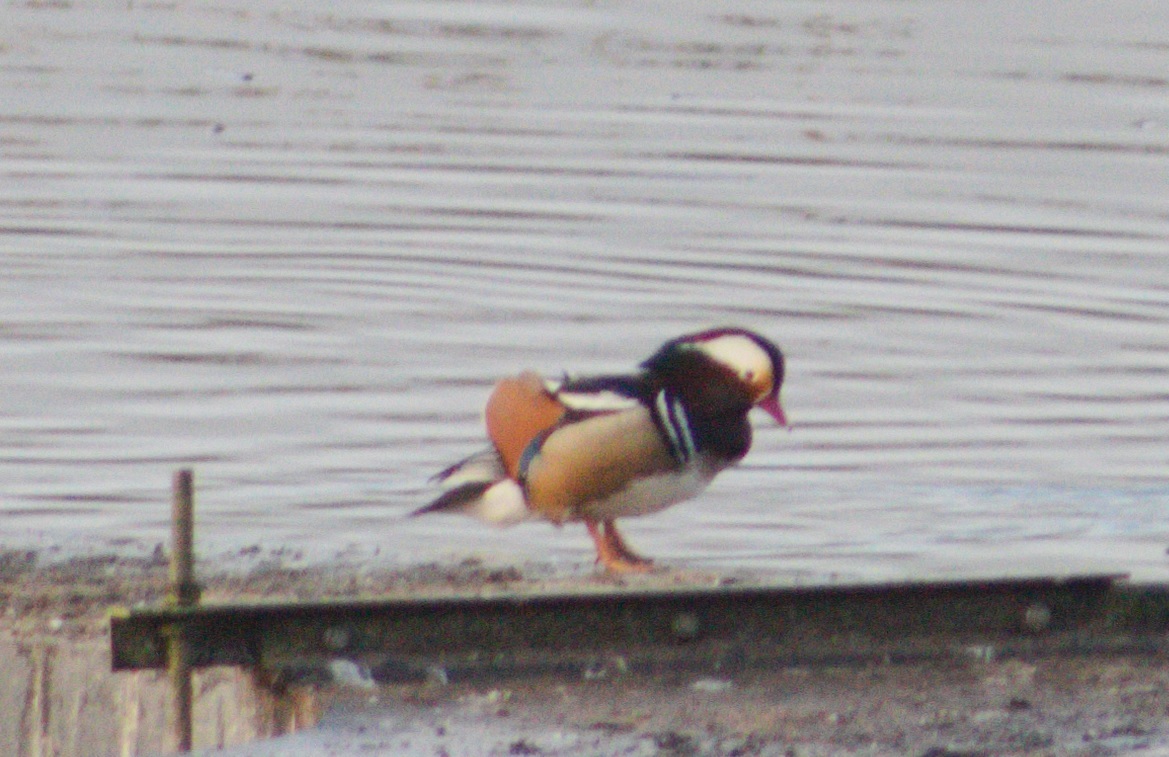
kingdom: Animalia
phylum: Chordata
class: Aves
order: Anseriformes
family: Anatidae
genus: Aix
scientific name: Aix galericulata
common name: Mandarin duck
